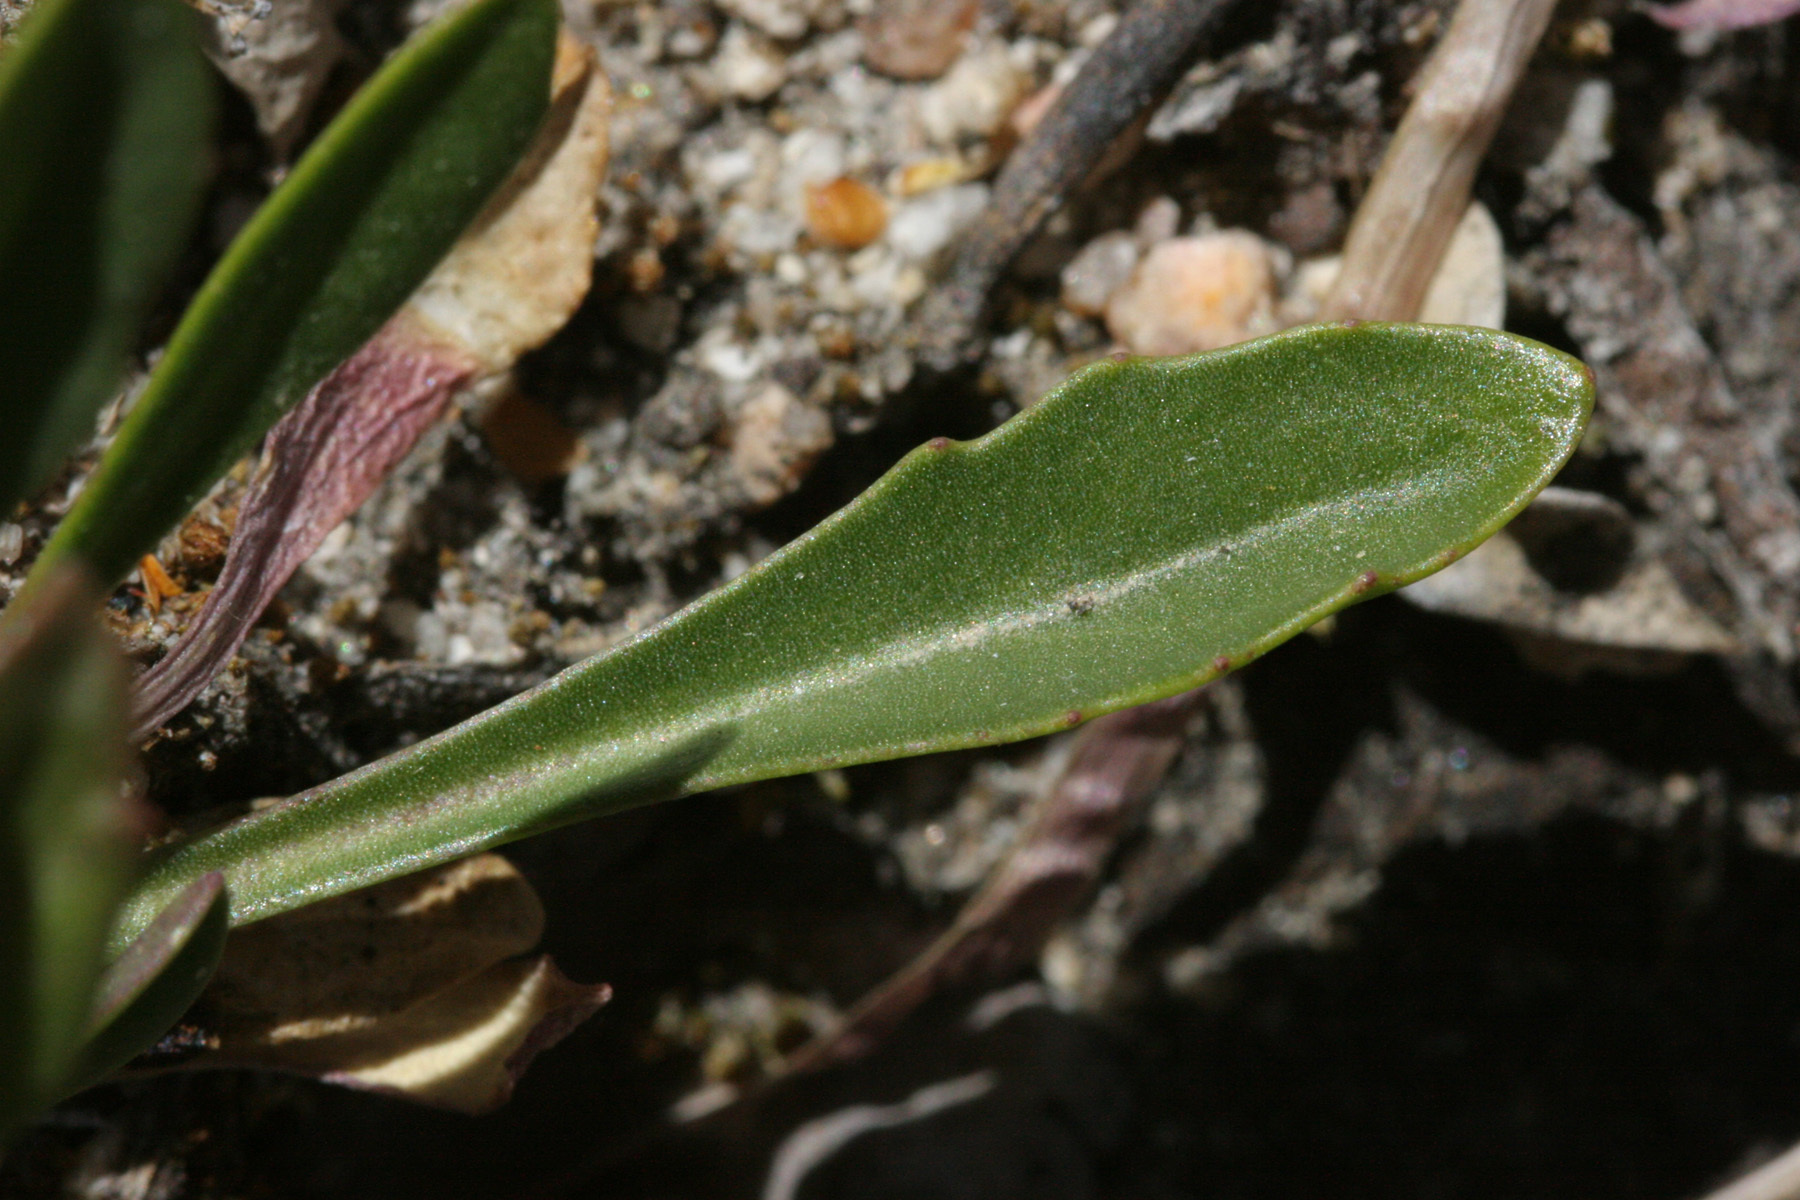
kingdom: Plantae
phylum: Tracheophyta
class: Magnoliopsida
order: Brassicales
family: Brassicaceae
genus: Boechera
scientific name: Boechera davidsonii
